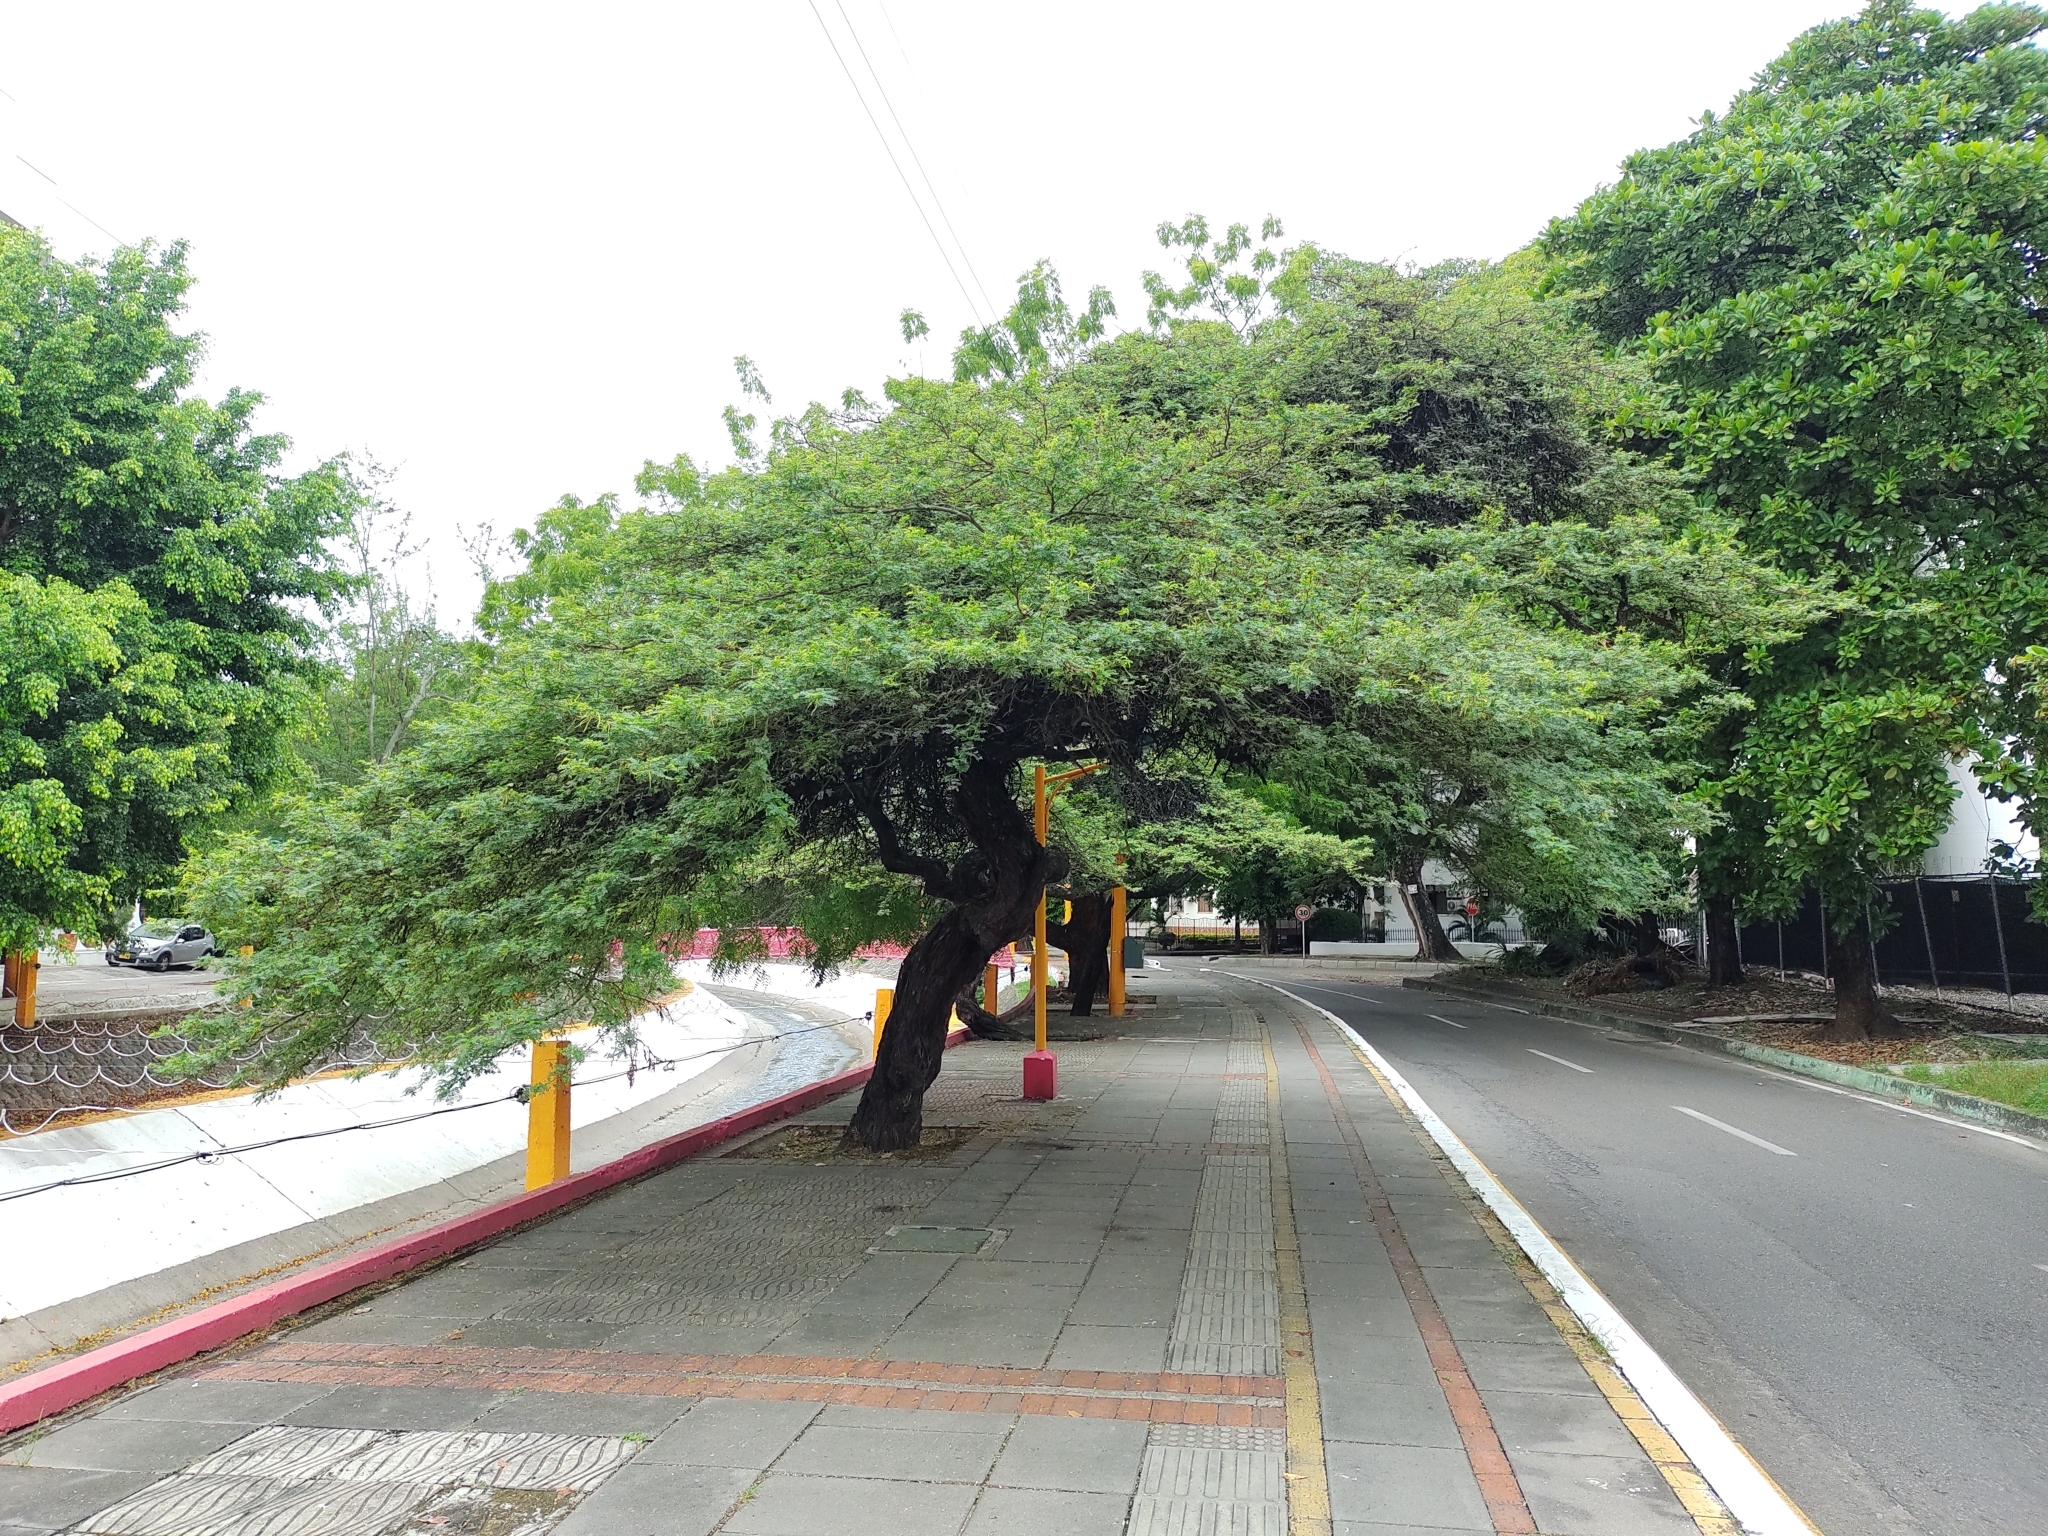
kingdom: Plantae
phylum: Tracheophyta
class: Magnoliopsida
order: Fabales
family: Fabaceae
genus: Prosopis
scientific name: Prosopis juliflora
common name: Mesquite
